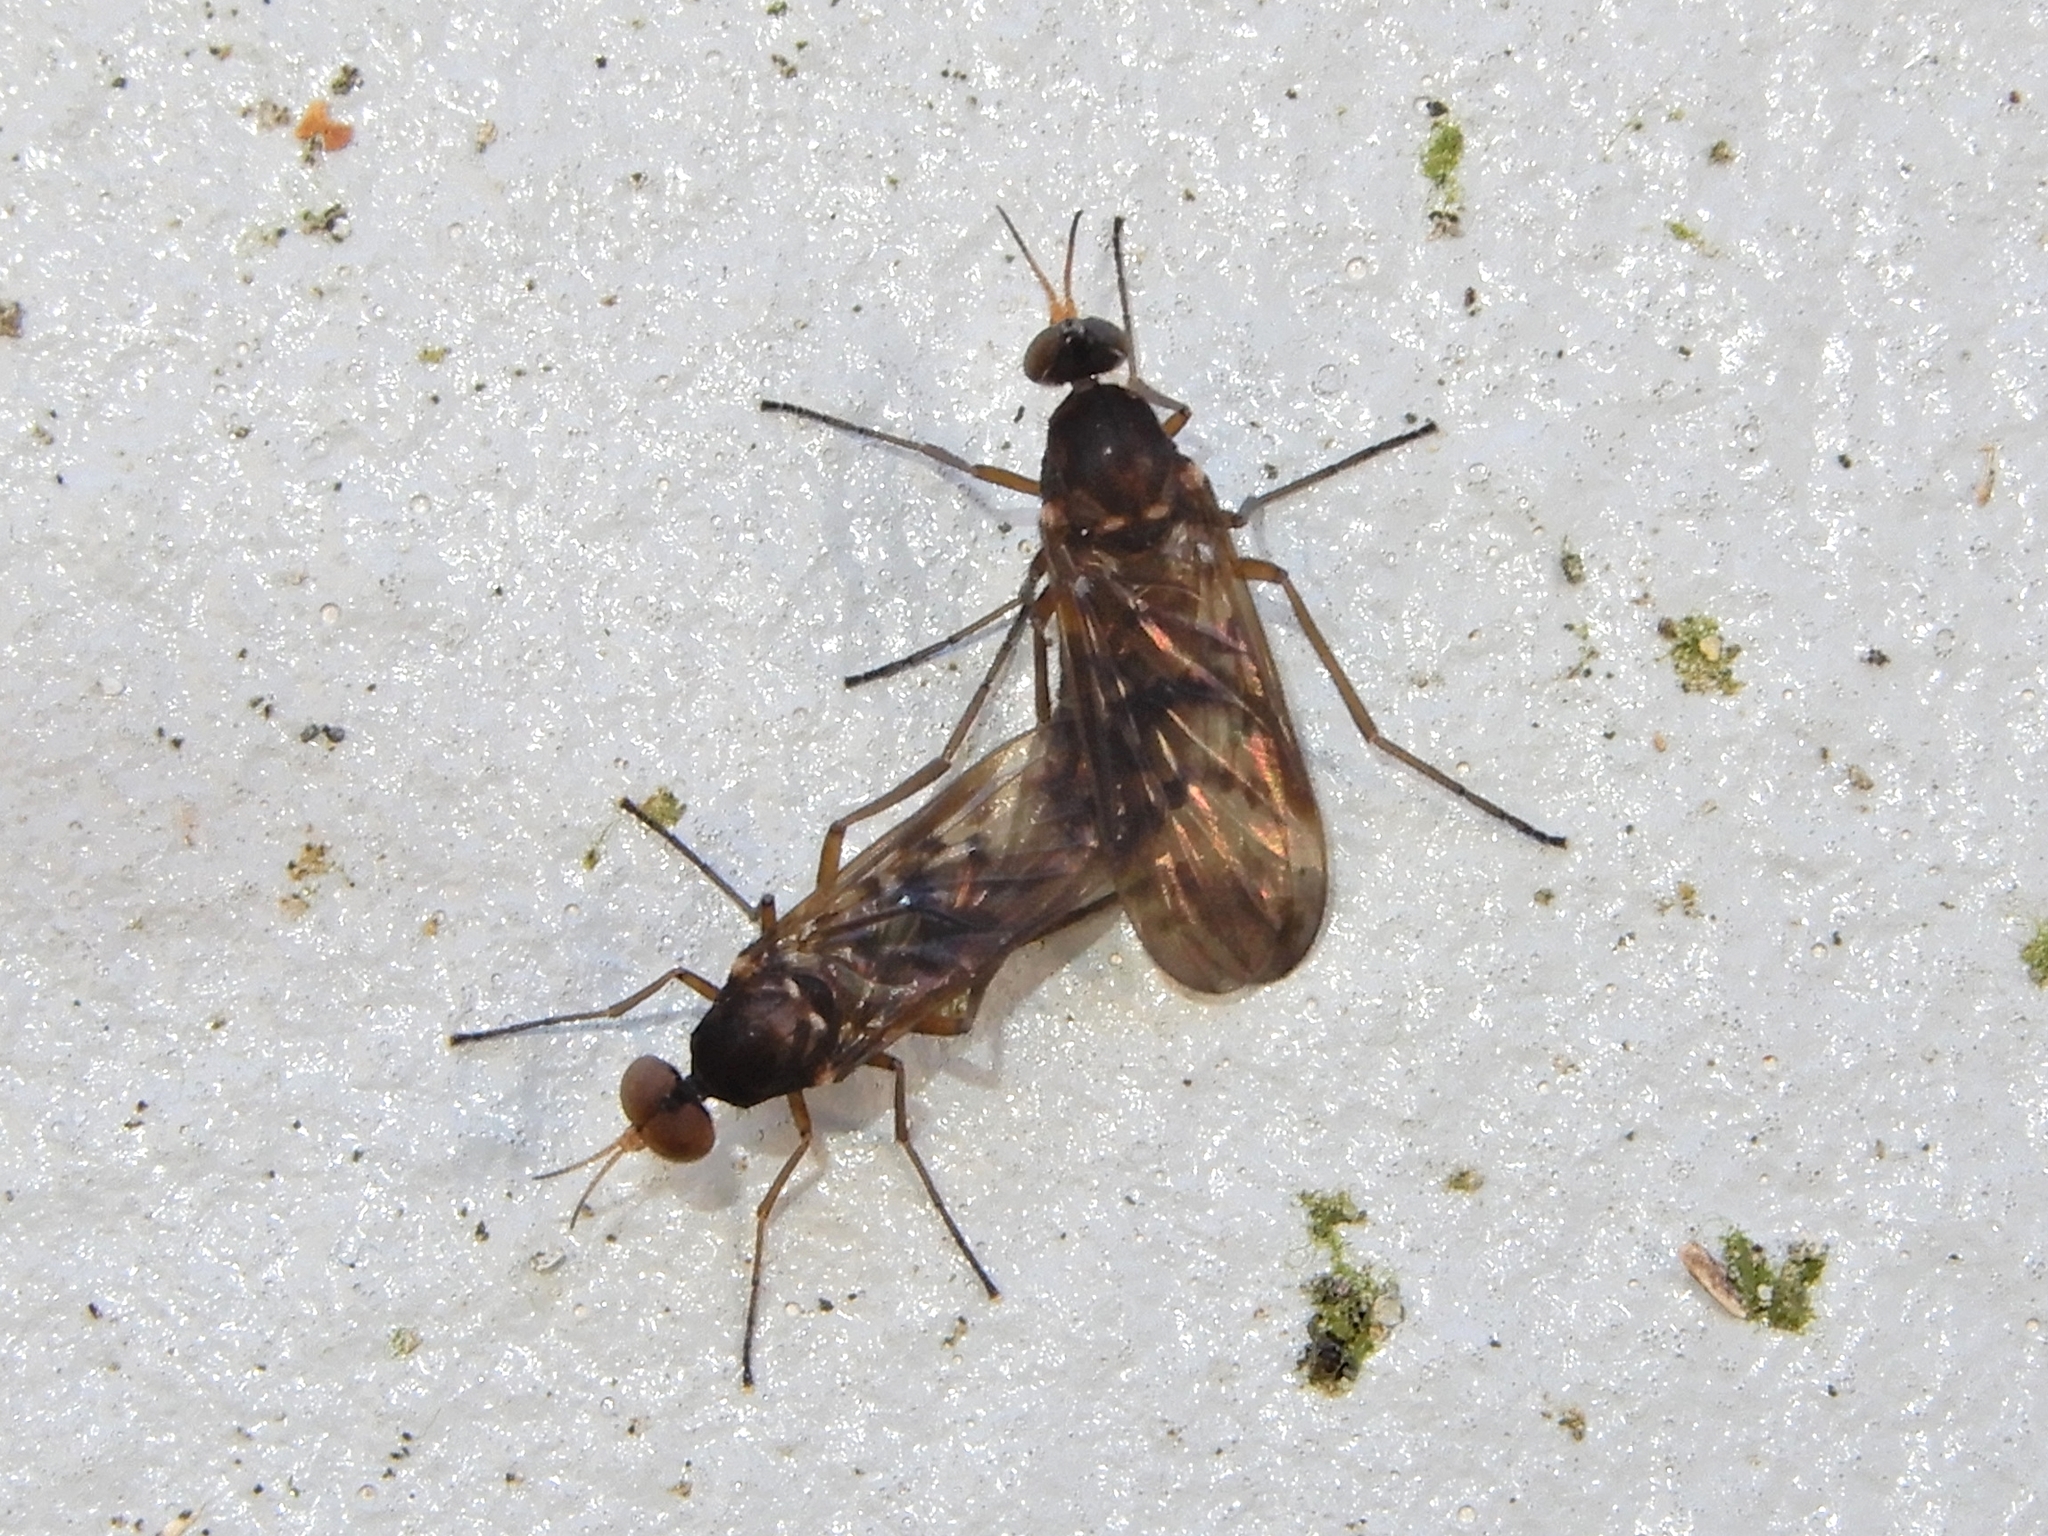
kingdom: Animalia
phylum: Arthropoda
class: Insecta
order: Diptera
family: Anisopodidae
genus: Sylvicola
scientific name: Sylvicola neozelandicus
